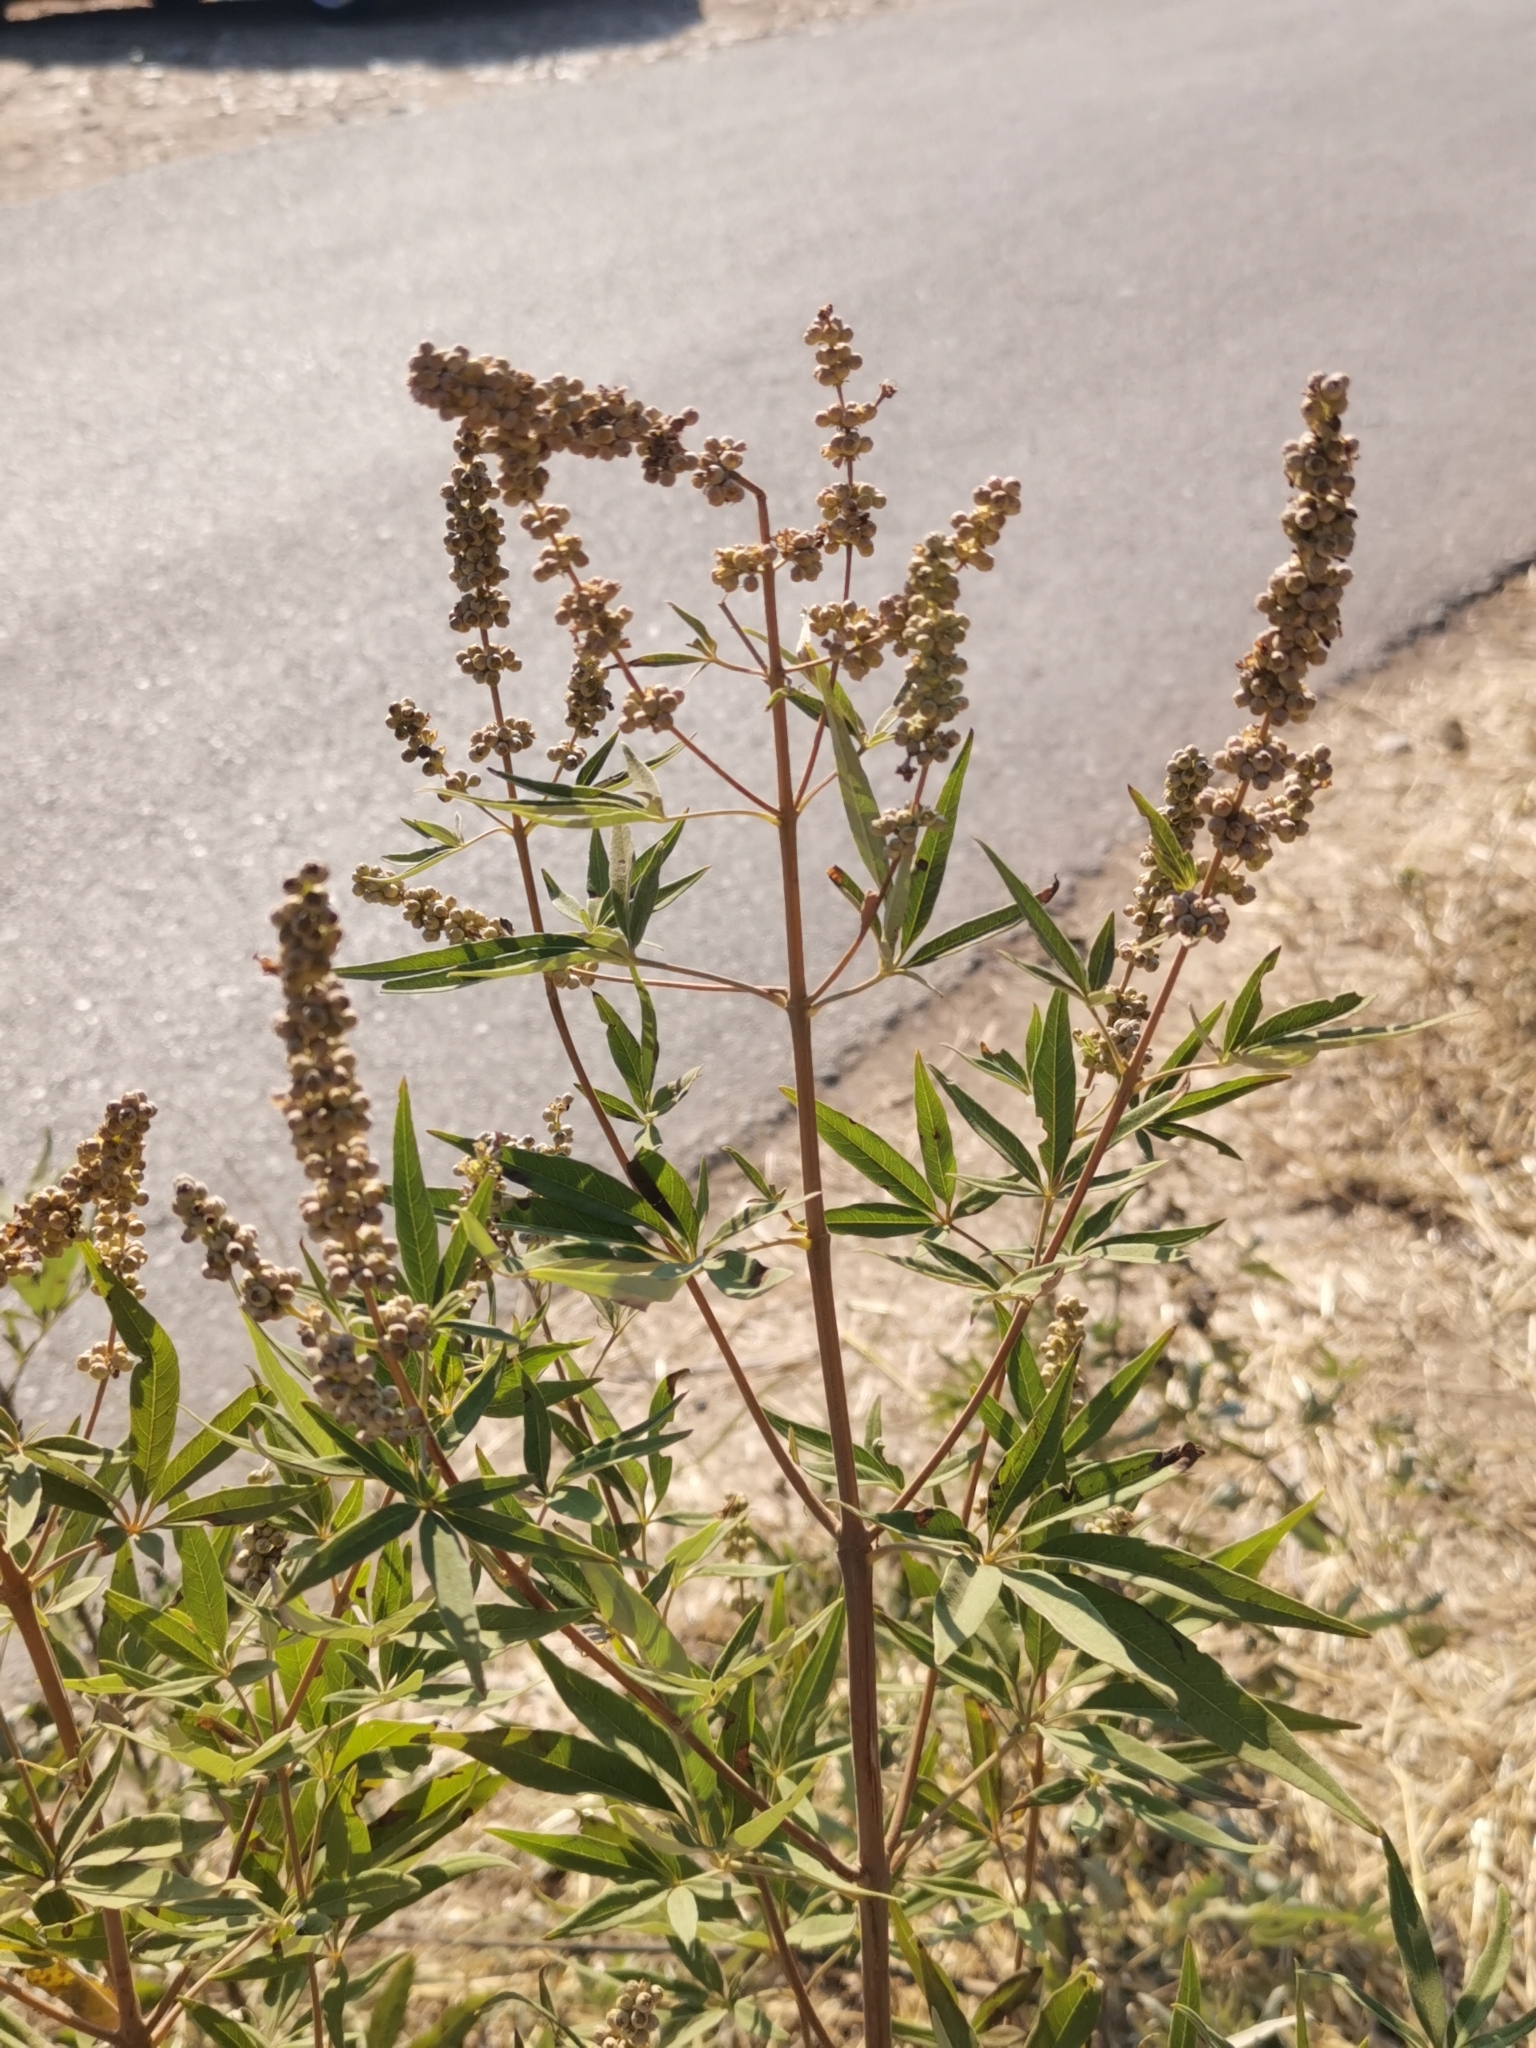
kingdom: Plantae
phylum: Tracheophyta
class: Magnoliopsida
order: Lamiales
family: Lamiaceae
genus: Vitex
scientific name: Vitex agnus-castus
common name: Chasteberry
